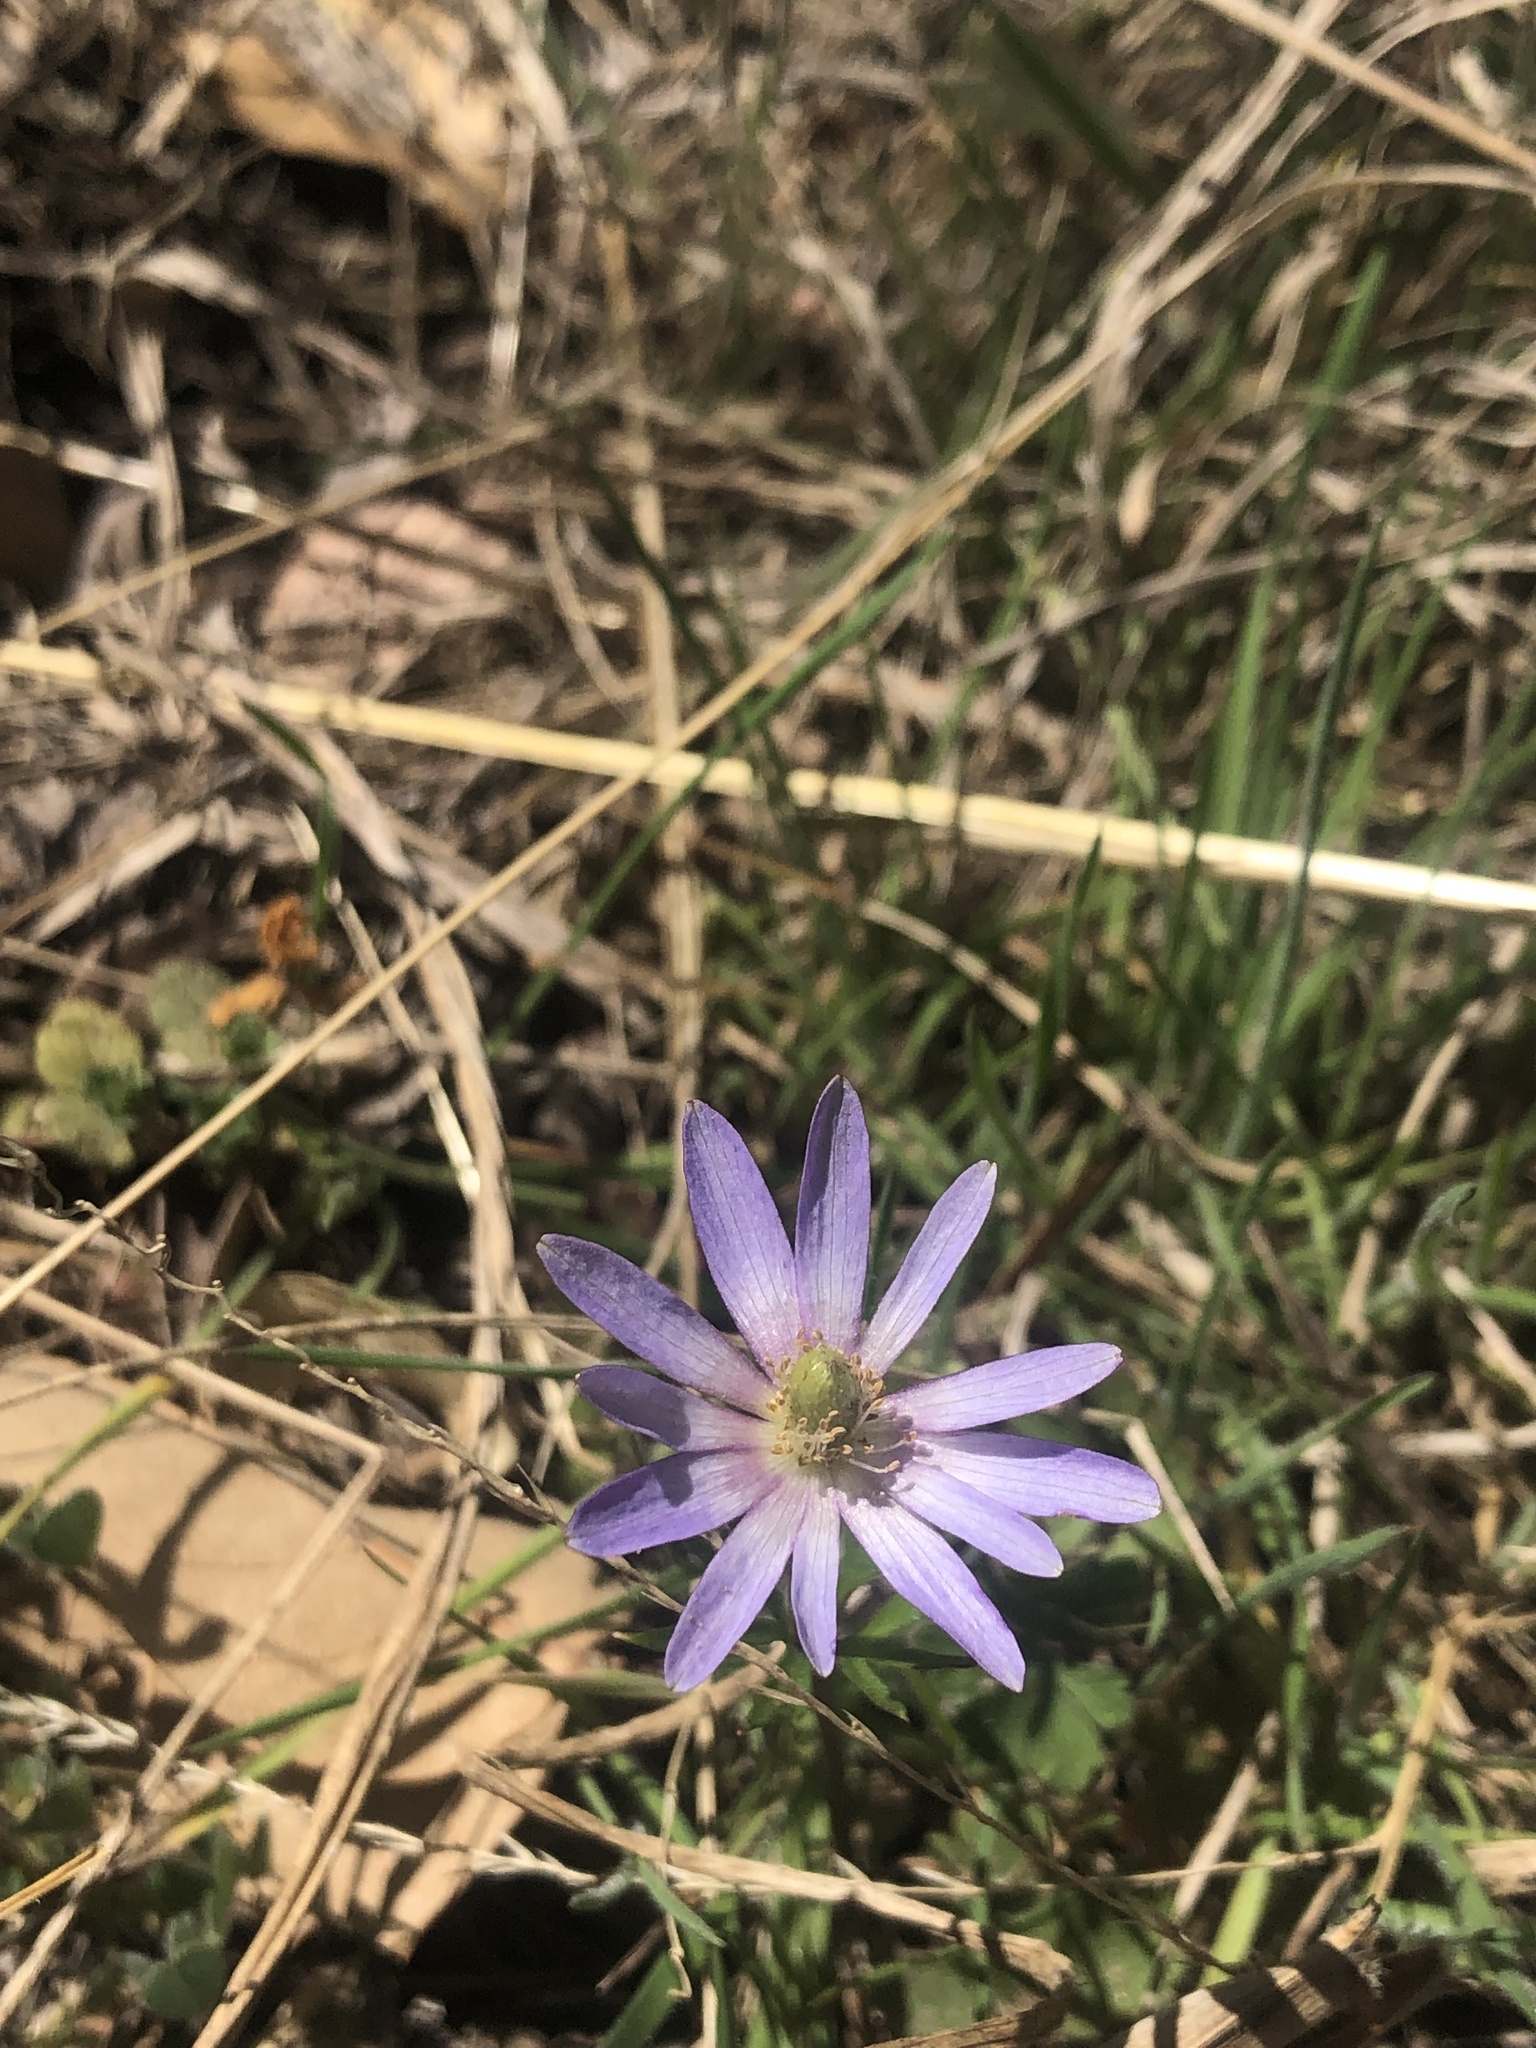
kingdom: Plantae
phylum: Tracheophyta
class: Magnoliopsida
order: Ranunculales
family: Ranunculaceae
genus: Anemone
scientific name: Anemone berlandieri
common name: Ten-petal anemone
